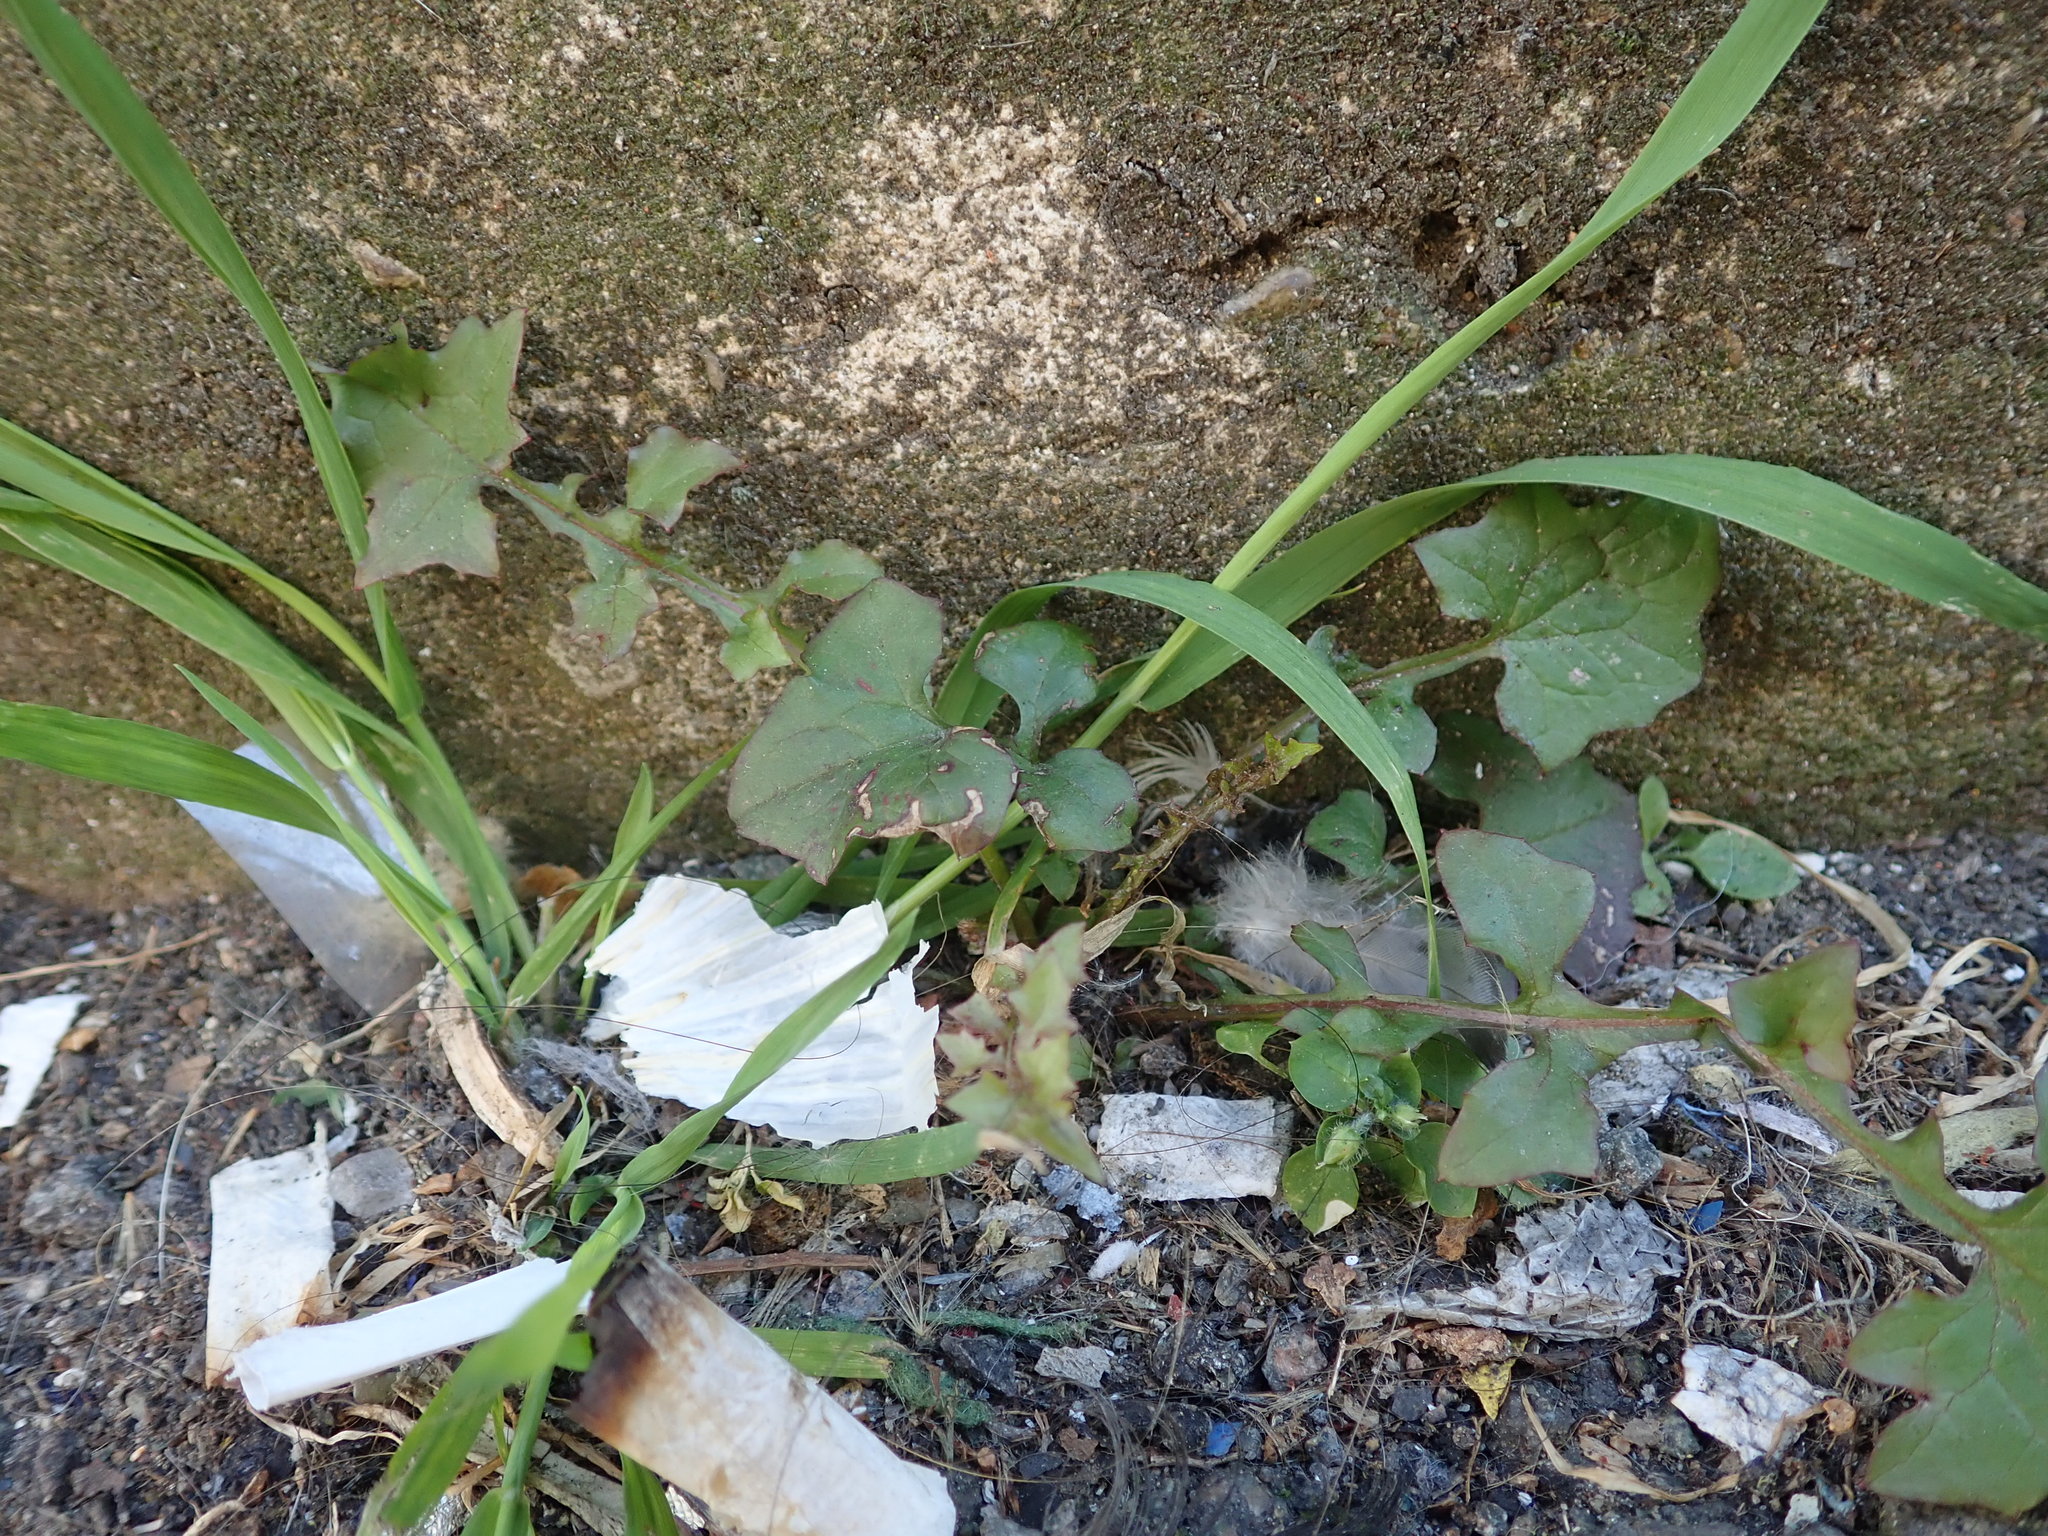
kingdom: Plantae
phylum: Tracheophyta
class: Magnoliopsida
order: Asterales
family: Asteraceae
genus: Mycelis
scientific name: Mycelis muralis
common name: Wall lettuce
